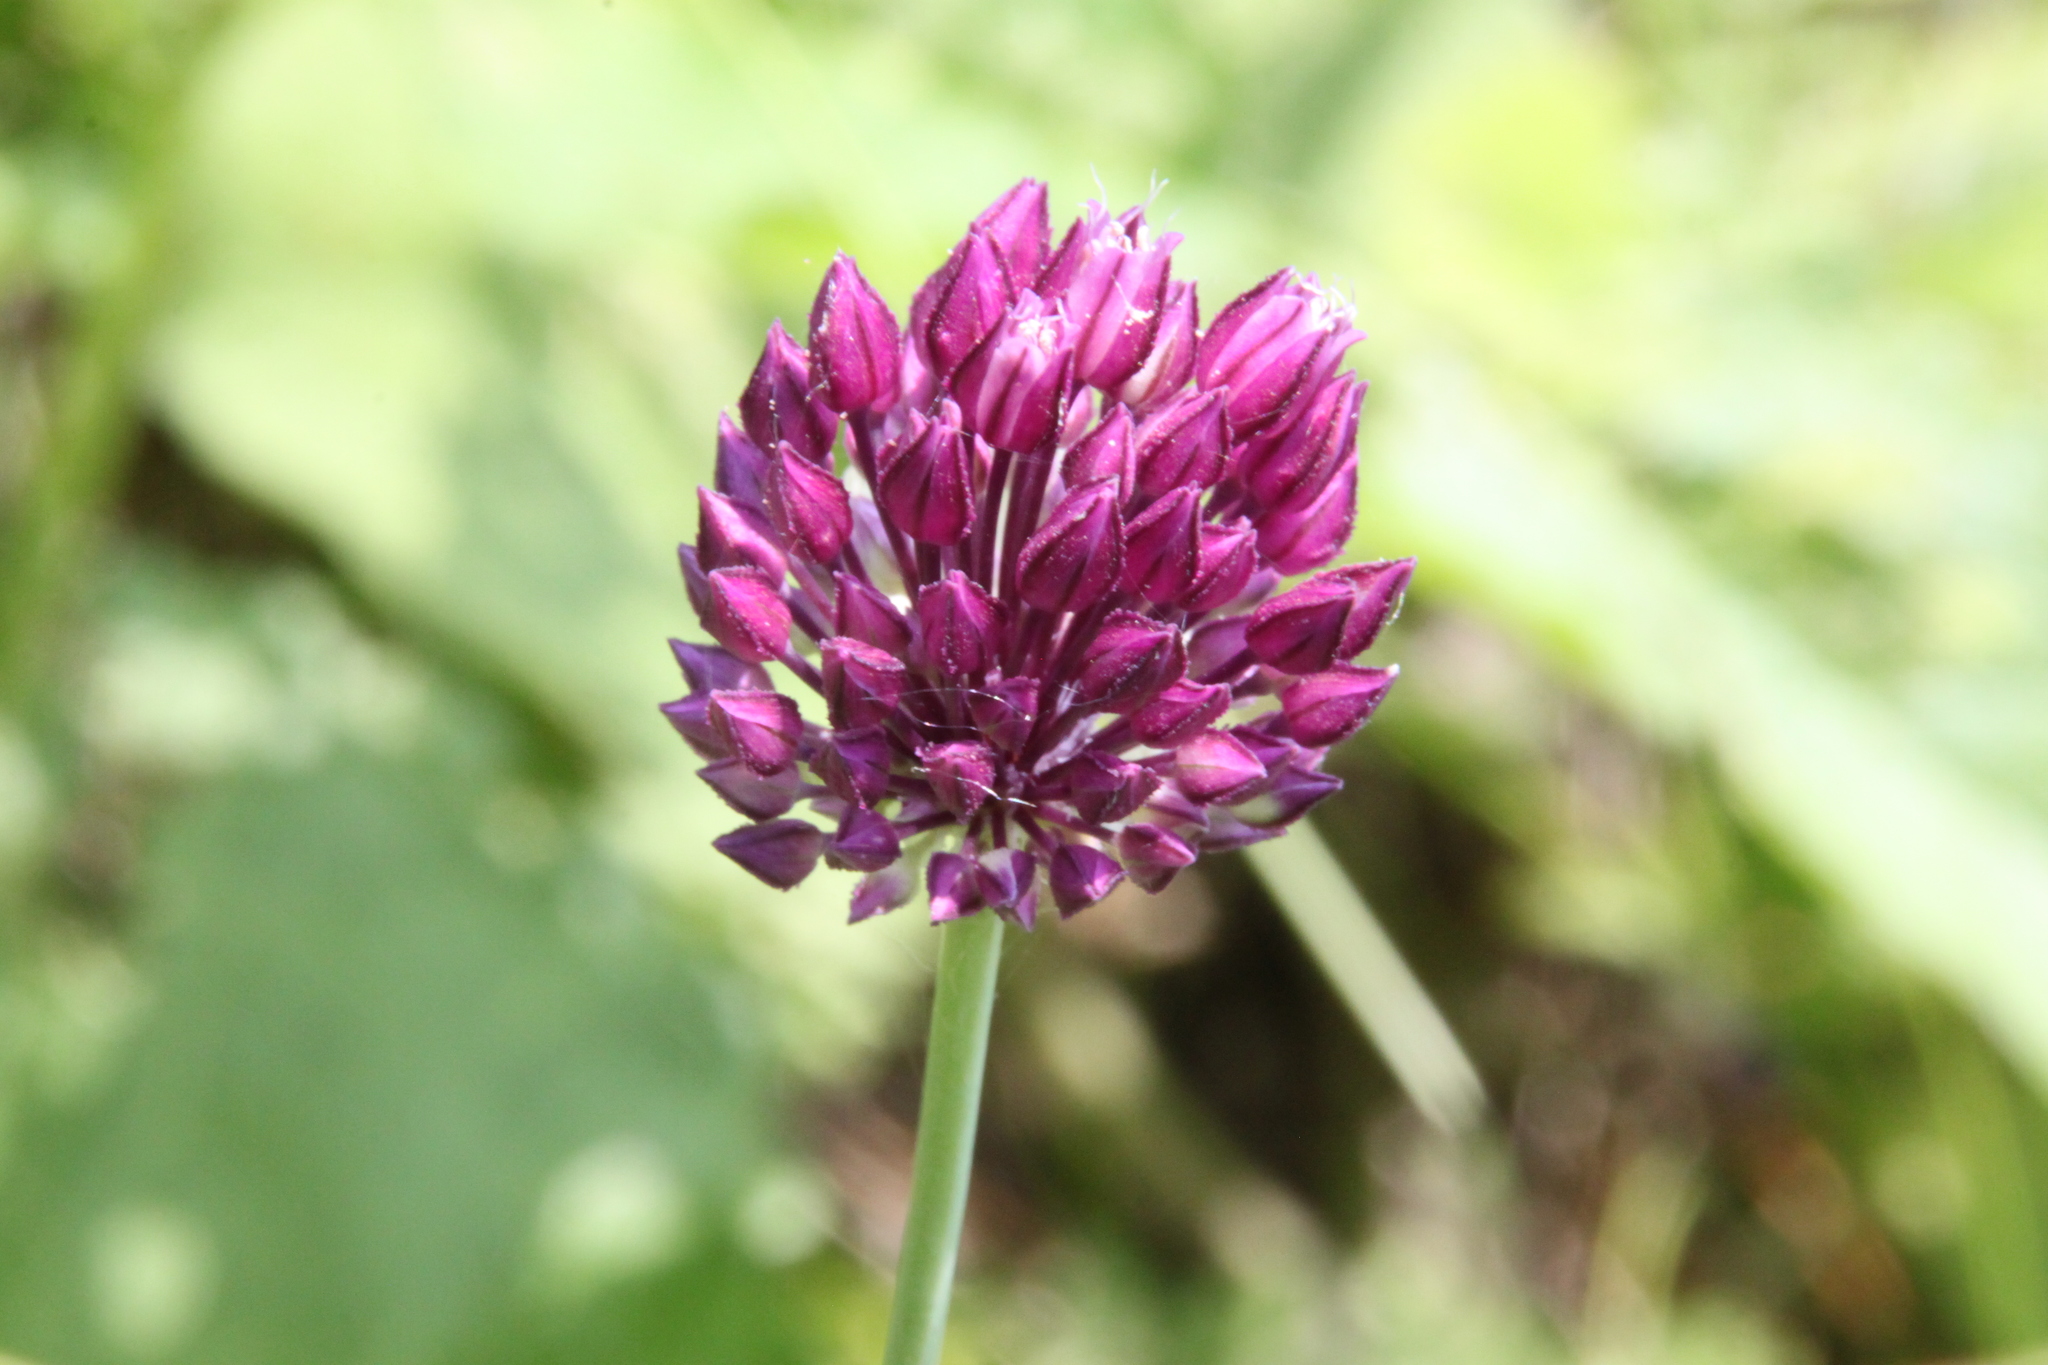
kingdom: Plantae
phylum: Tracheophyta
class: Liliopsida
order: Asparagales
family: Amaryllidaceae
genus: Allium
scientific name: Allium rotundum
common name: Sand leek
